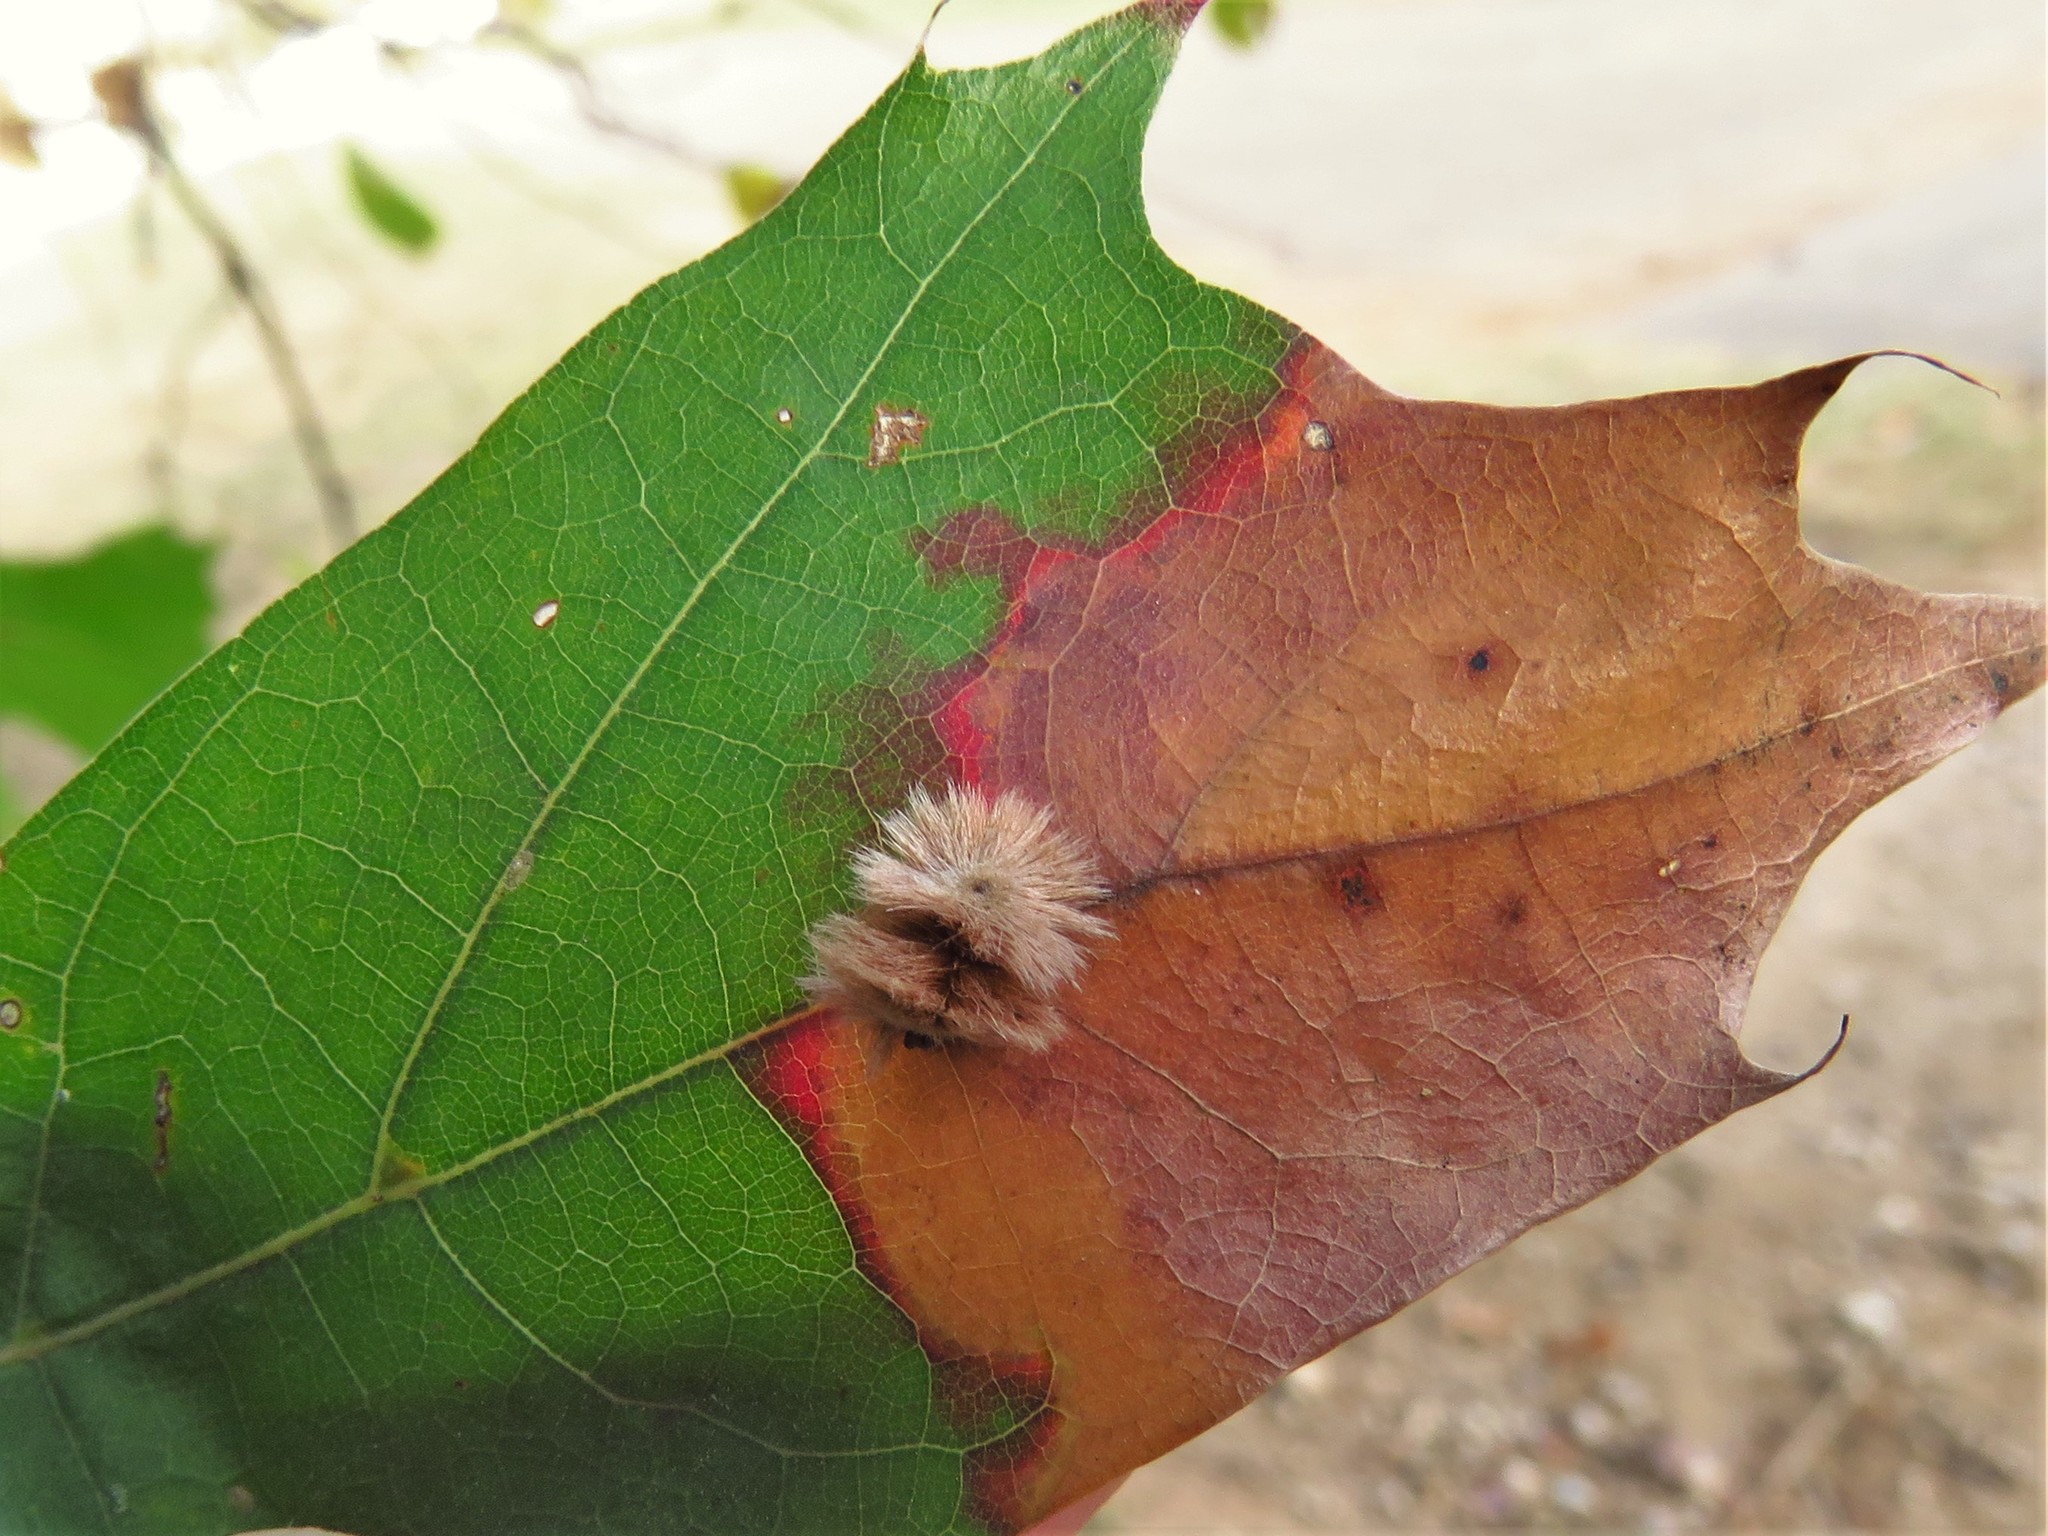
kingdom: Animalia
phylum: Arthropoda
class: Insecta
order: Hymenoptera
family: Cynipidae
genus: Callirhytis
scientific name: Callirhytis
